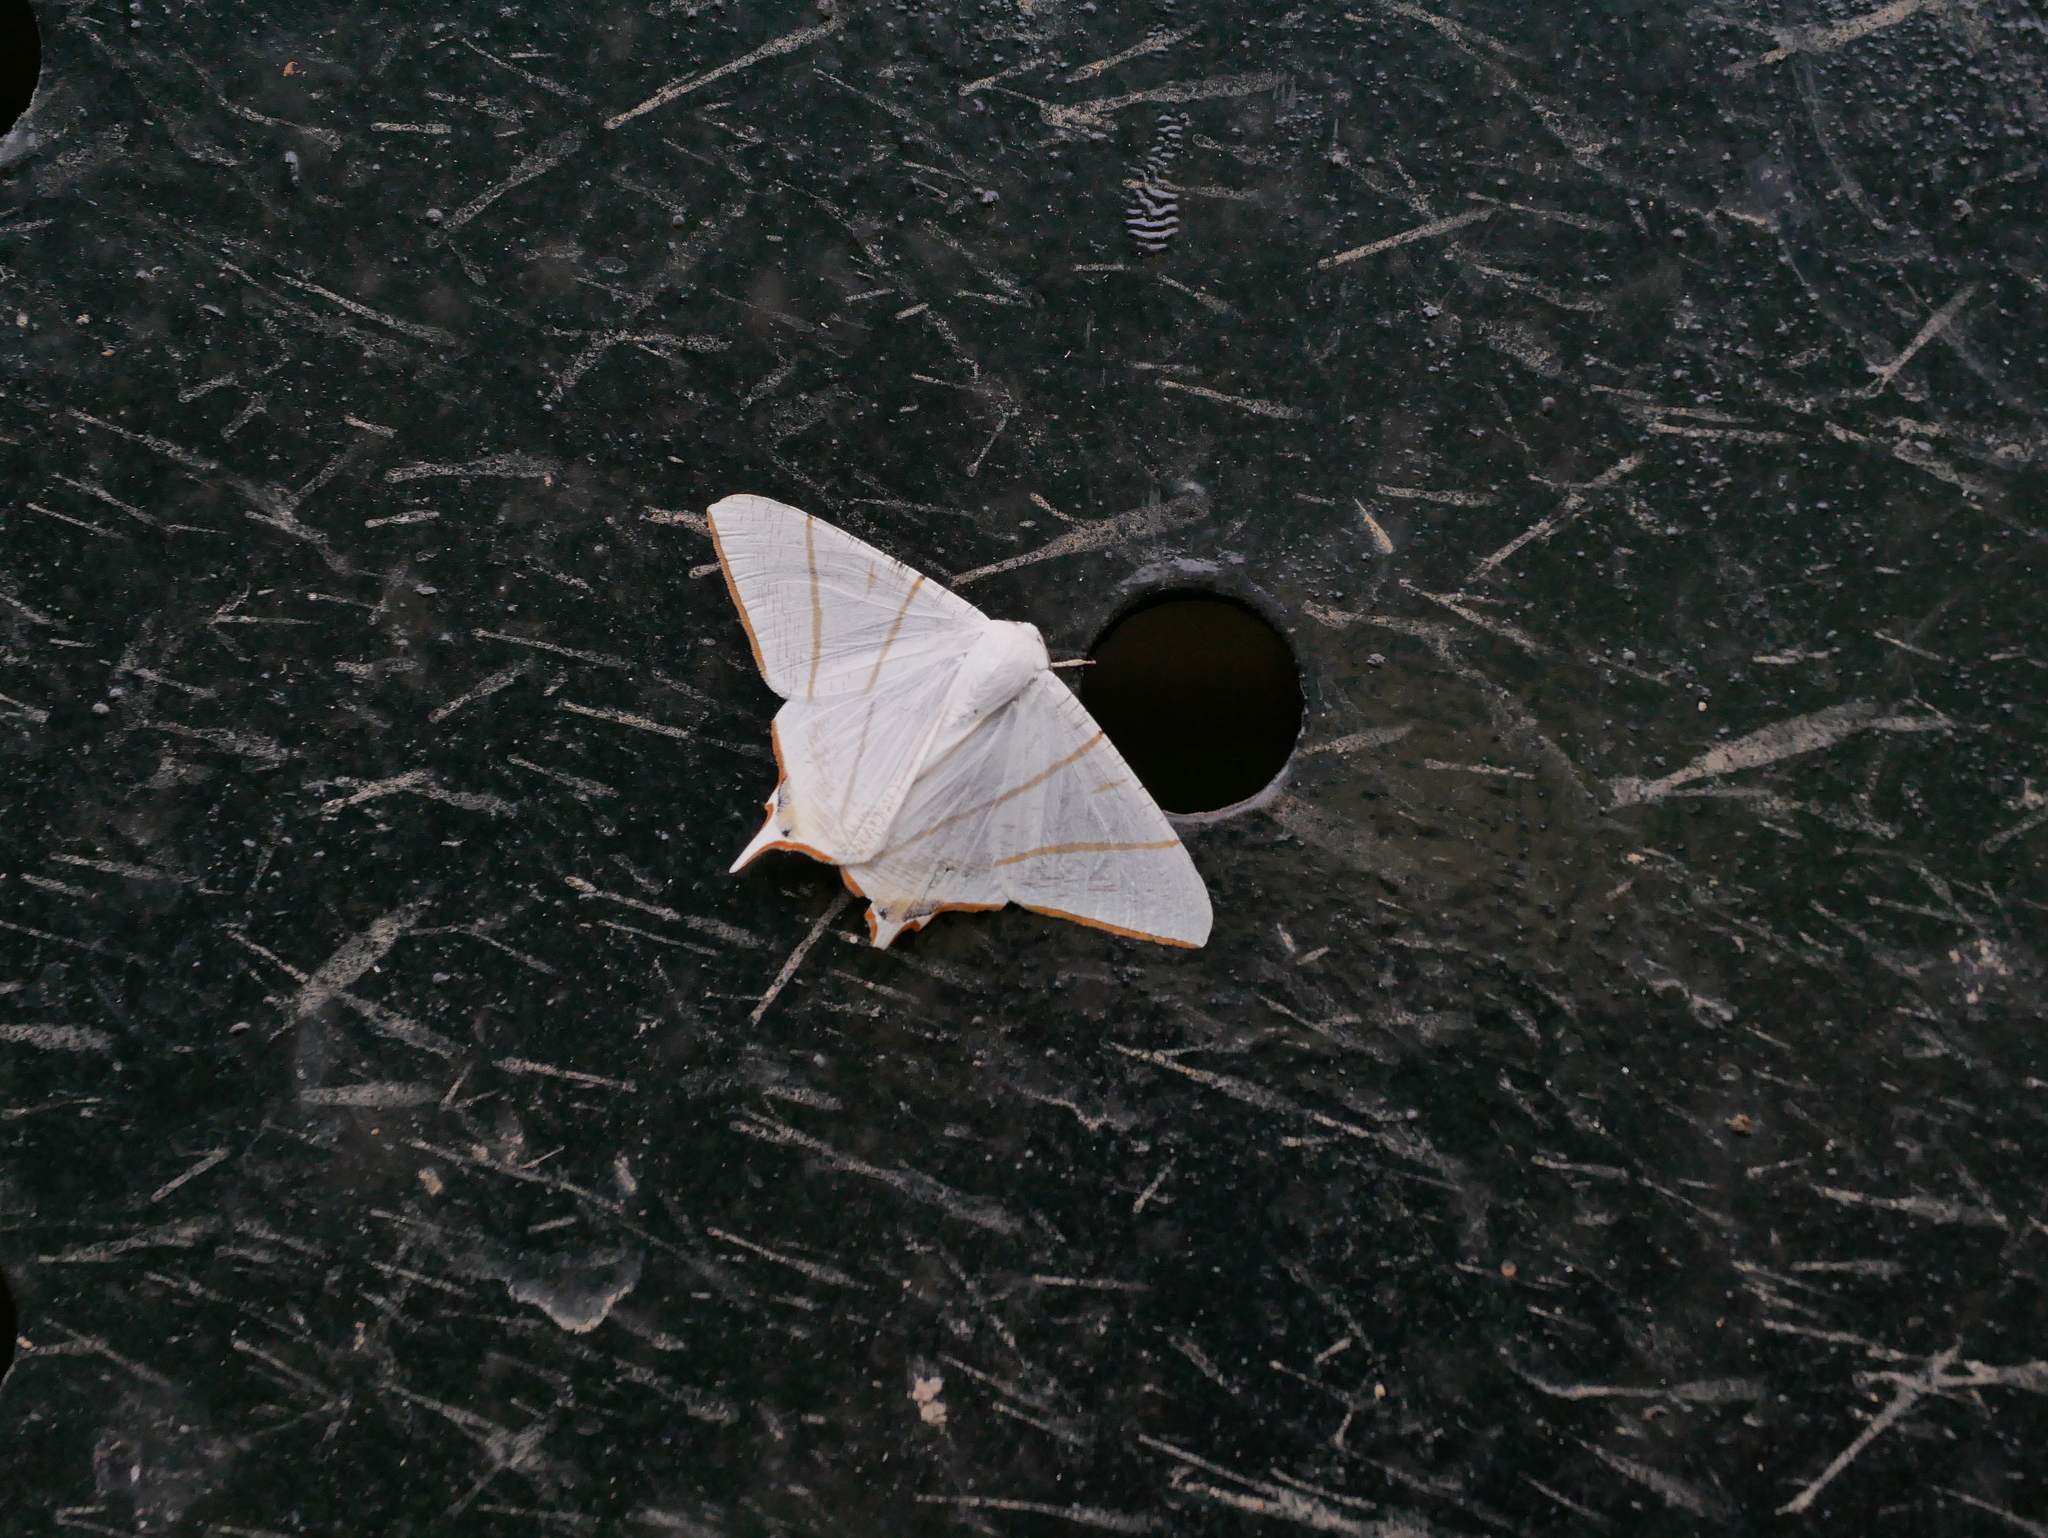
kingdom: Animalia
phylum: Arthropoda
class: Insecta
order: Lepidoptera
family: Geometridae
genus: Ourapteryx
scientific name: Ourapteryx clara
